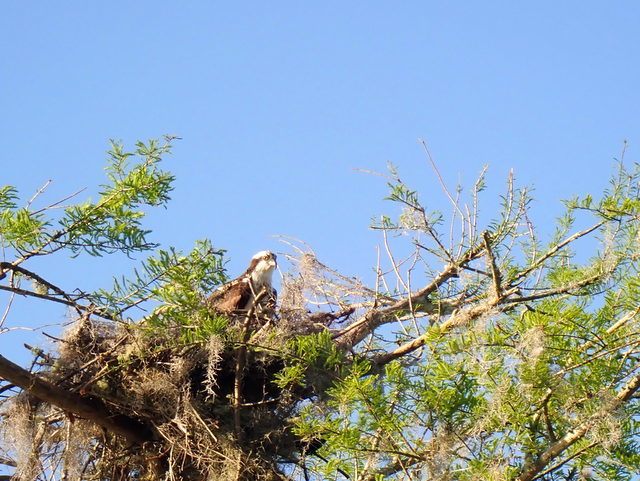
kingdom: Animalia
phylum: Chordata
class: Aves
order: Accipitriformes
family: Pandionidae
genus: Pandion
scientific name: Pandion haliaetus
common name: Osprey
